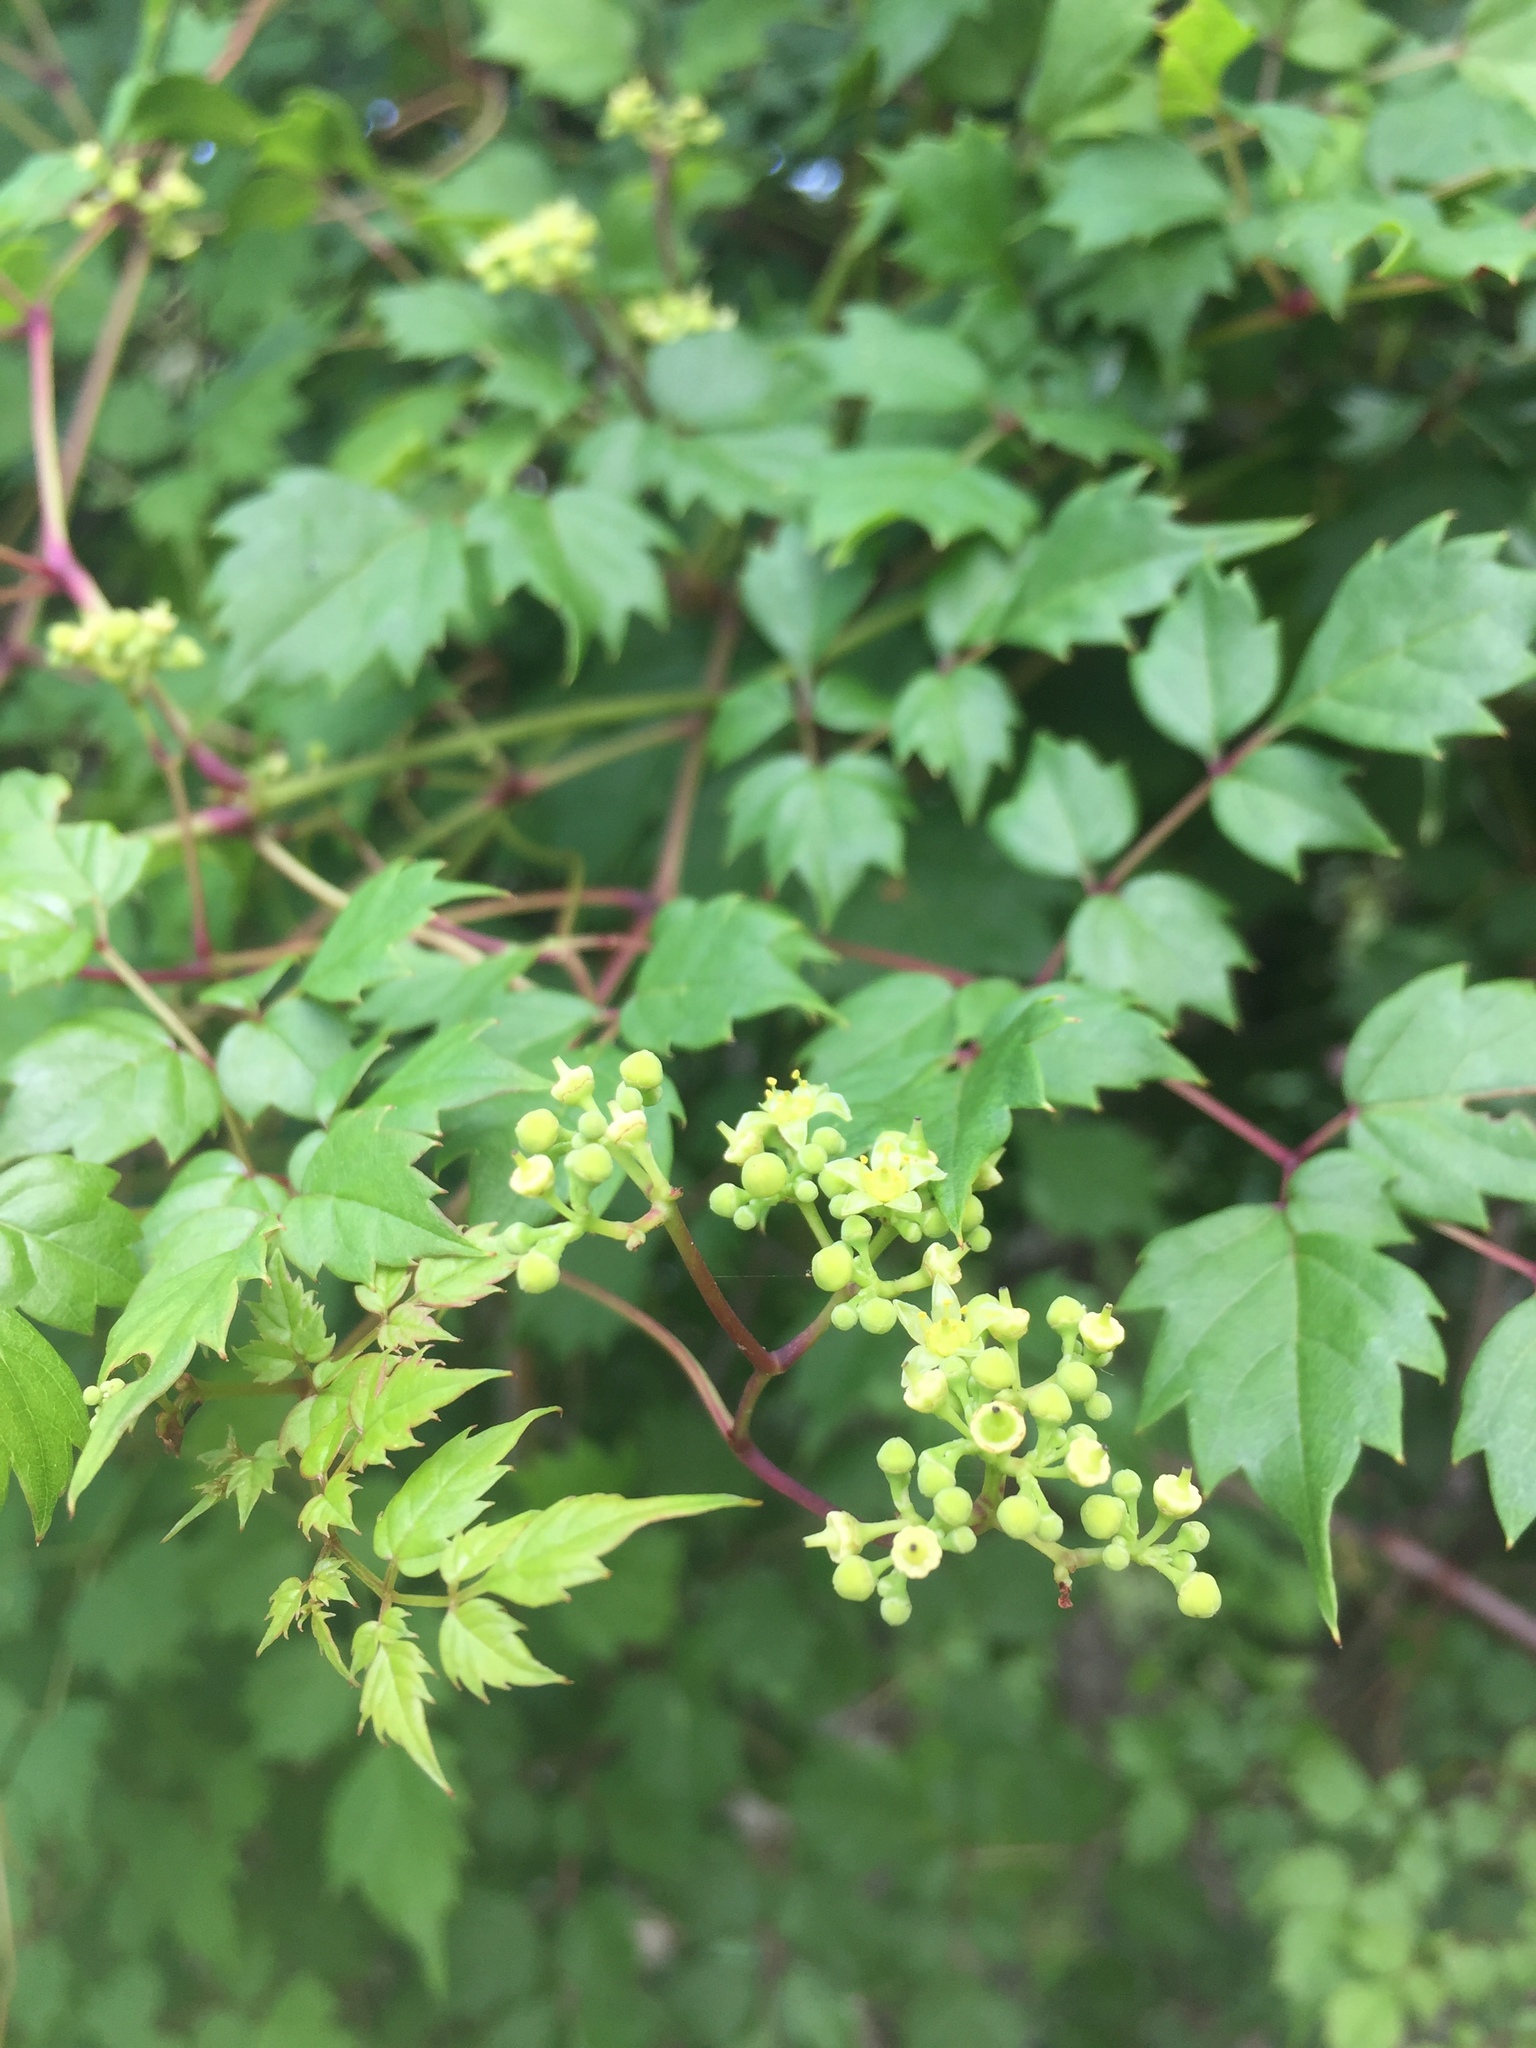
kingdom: Plantae
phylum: Tracheophyta
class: Magnoliopsida
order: Vitales
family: Vitaceae
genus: Nekemias
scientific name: Nekemias arborea
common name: Peppervine
